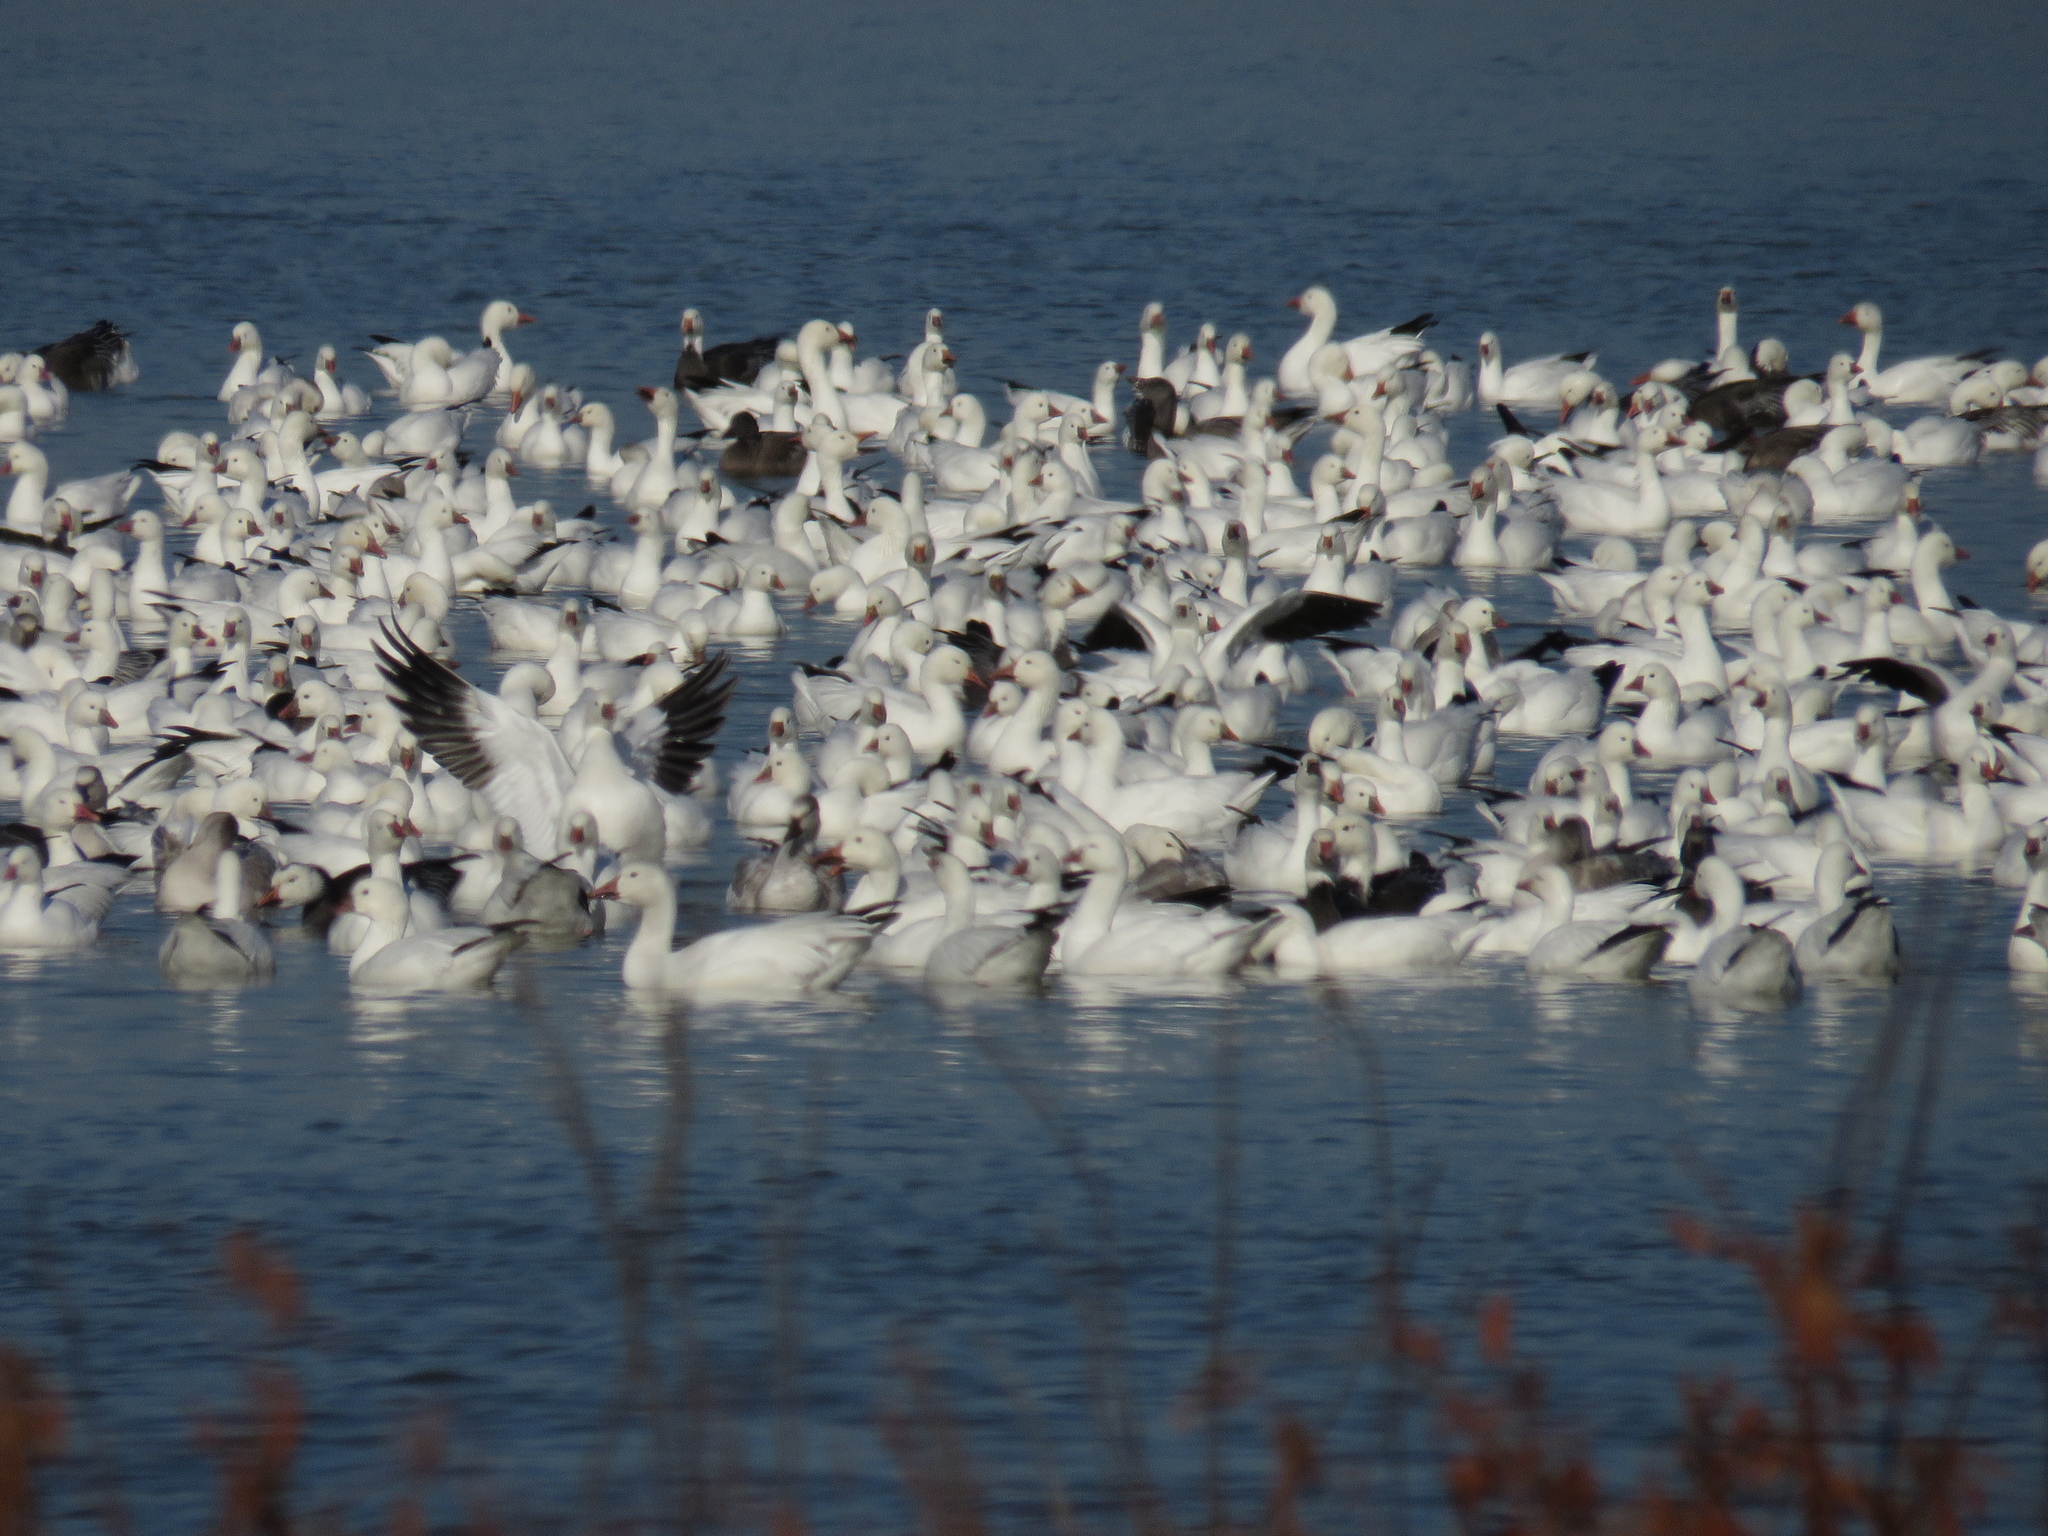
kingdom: Animalia
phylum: Chordata
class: Aves
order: Anseriformes
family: Anatidae
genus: Anser
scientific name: Anser caerulescens
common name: Snow goose
